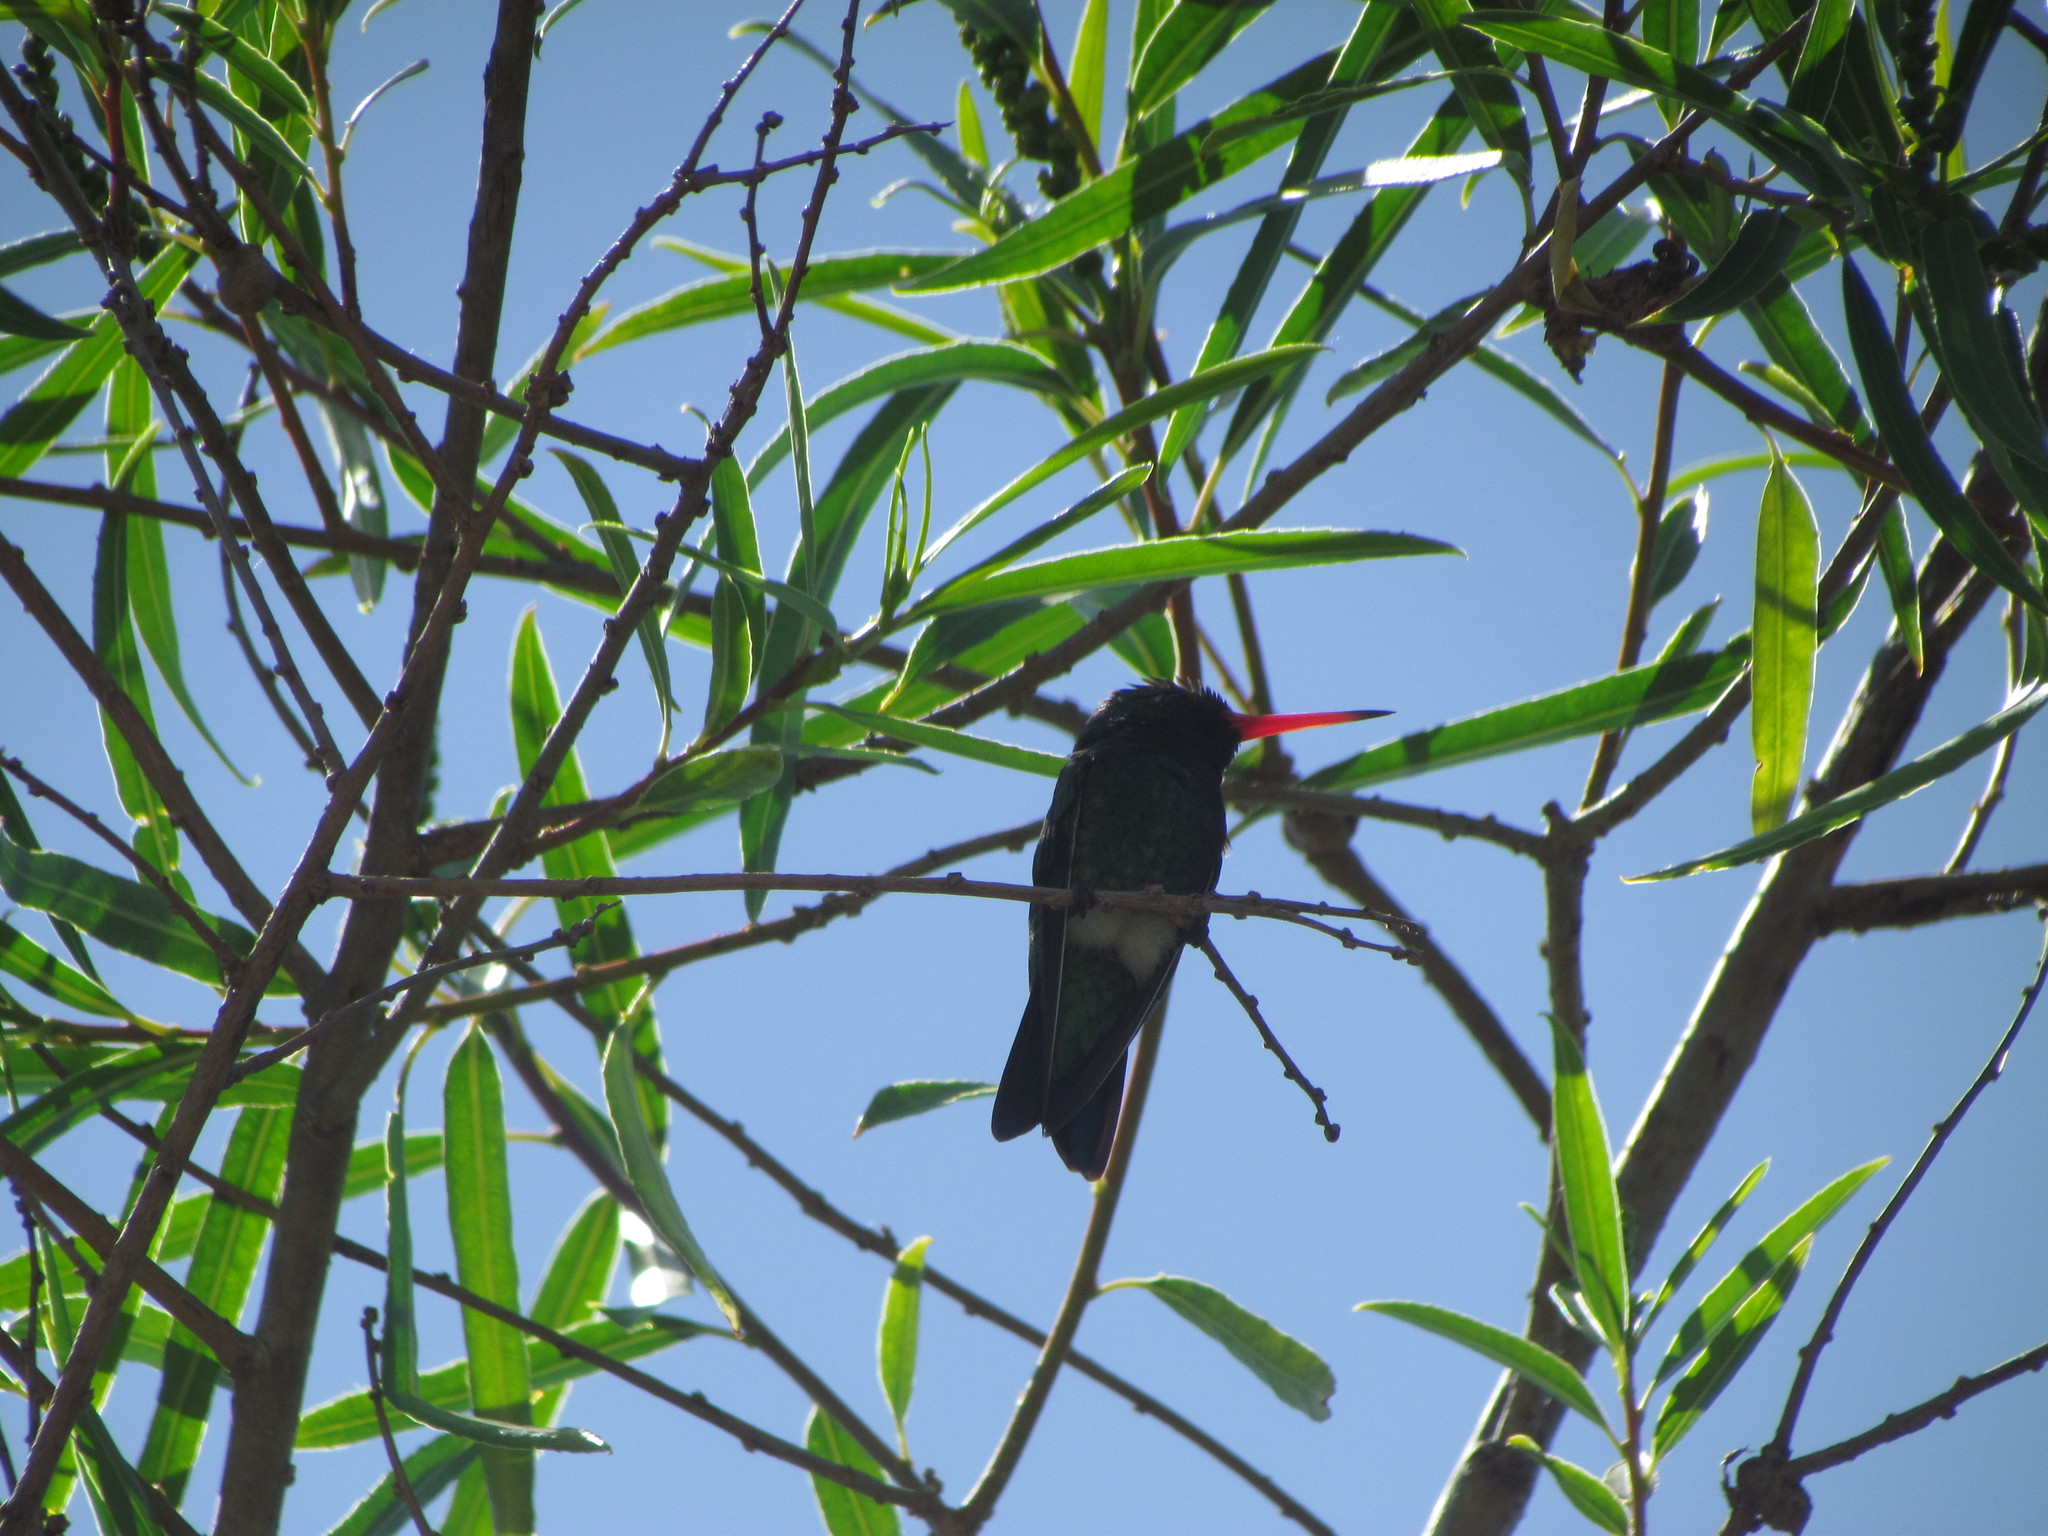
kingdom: Animalia
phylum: Chordata
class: Aves
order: Apodiformes
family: Trochilidae
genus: Chlorostilbon
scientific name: Chlorostilbon lucidus
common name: Glittering-bellied emerald
